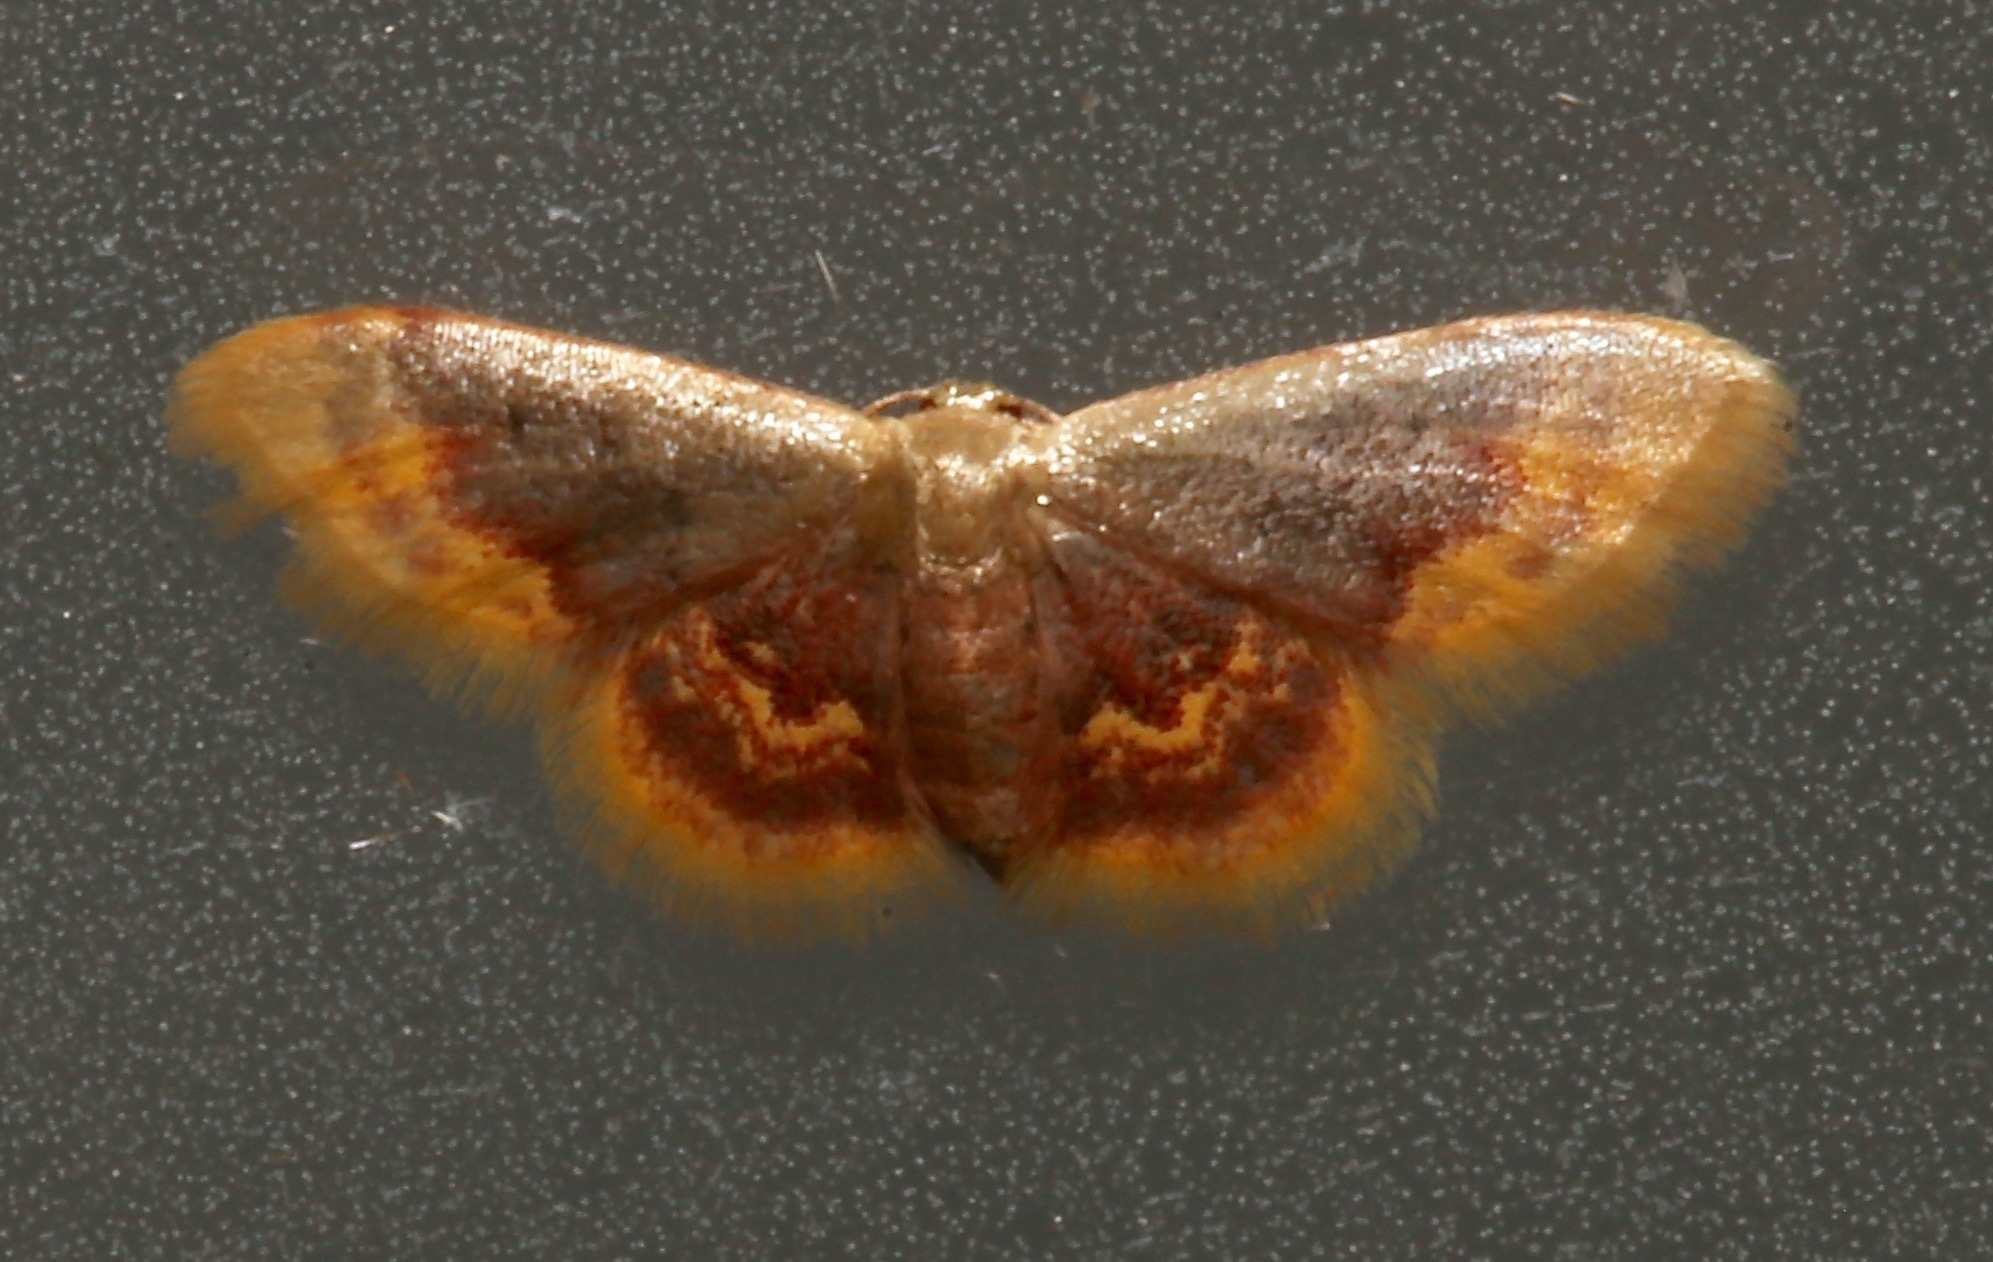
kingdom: Animalia
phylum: Arthropoda
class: Insecta
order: Lepidoptera
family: Geometridae
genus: Idaea
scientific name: Idaea scintillularia
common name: Diminutive wave
